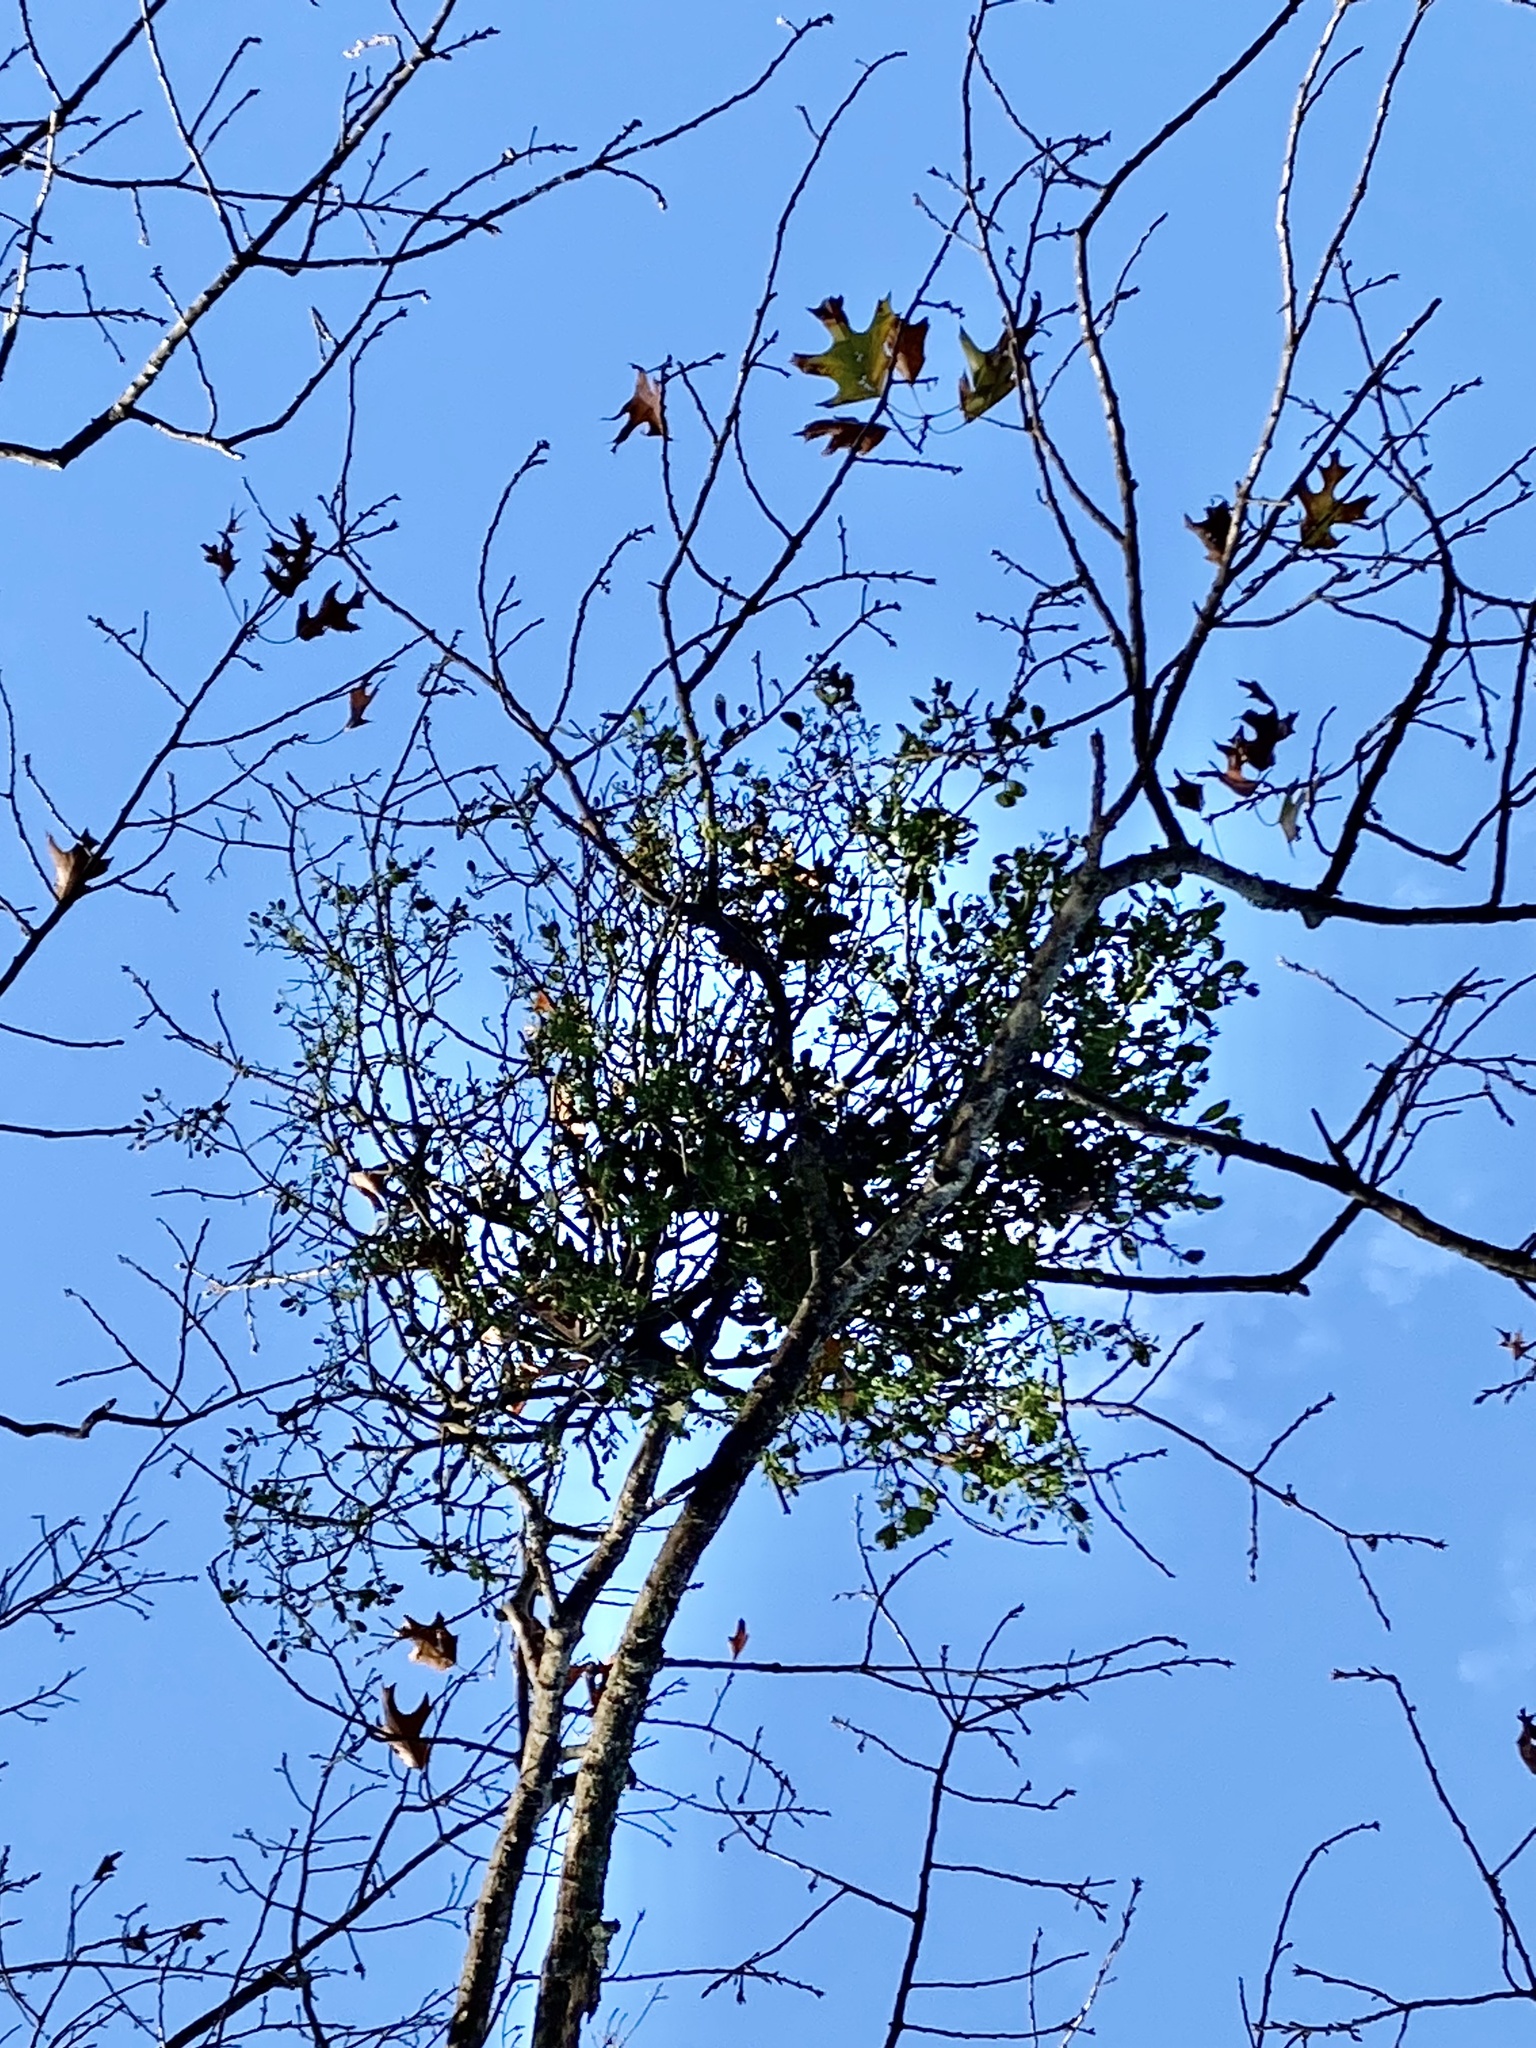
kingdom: Plantae
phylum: Tracheophyta
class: Magnoliopsida
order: Santalales
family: Viscaceae
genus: Phoradendron
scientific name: Phoradendron leucarpum
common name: Pacific mistletoe
